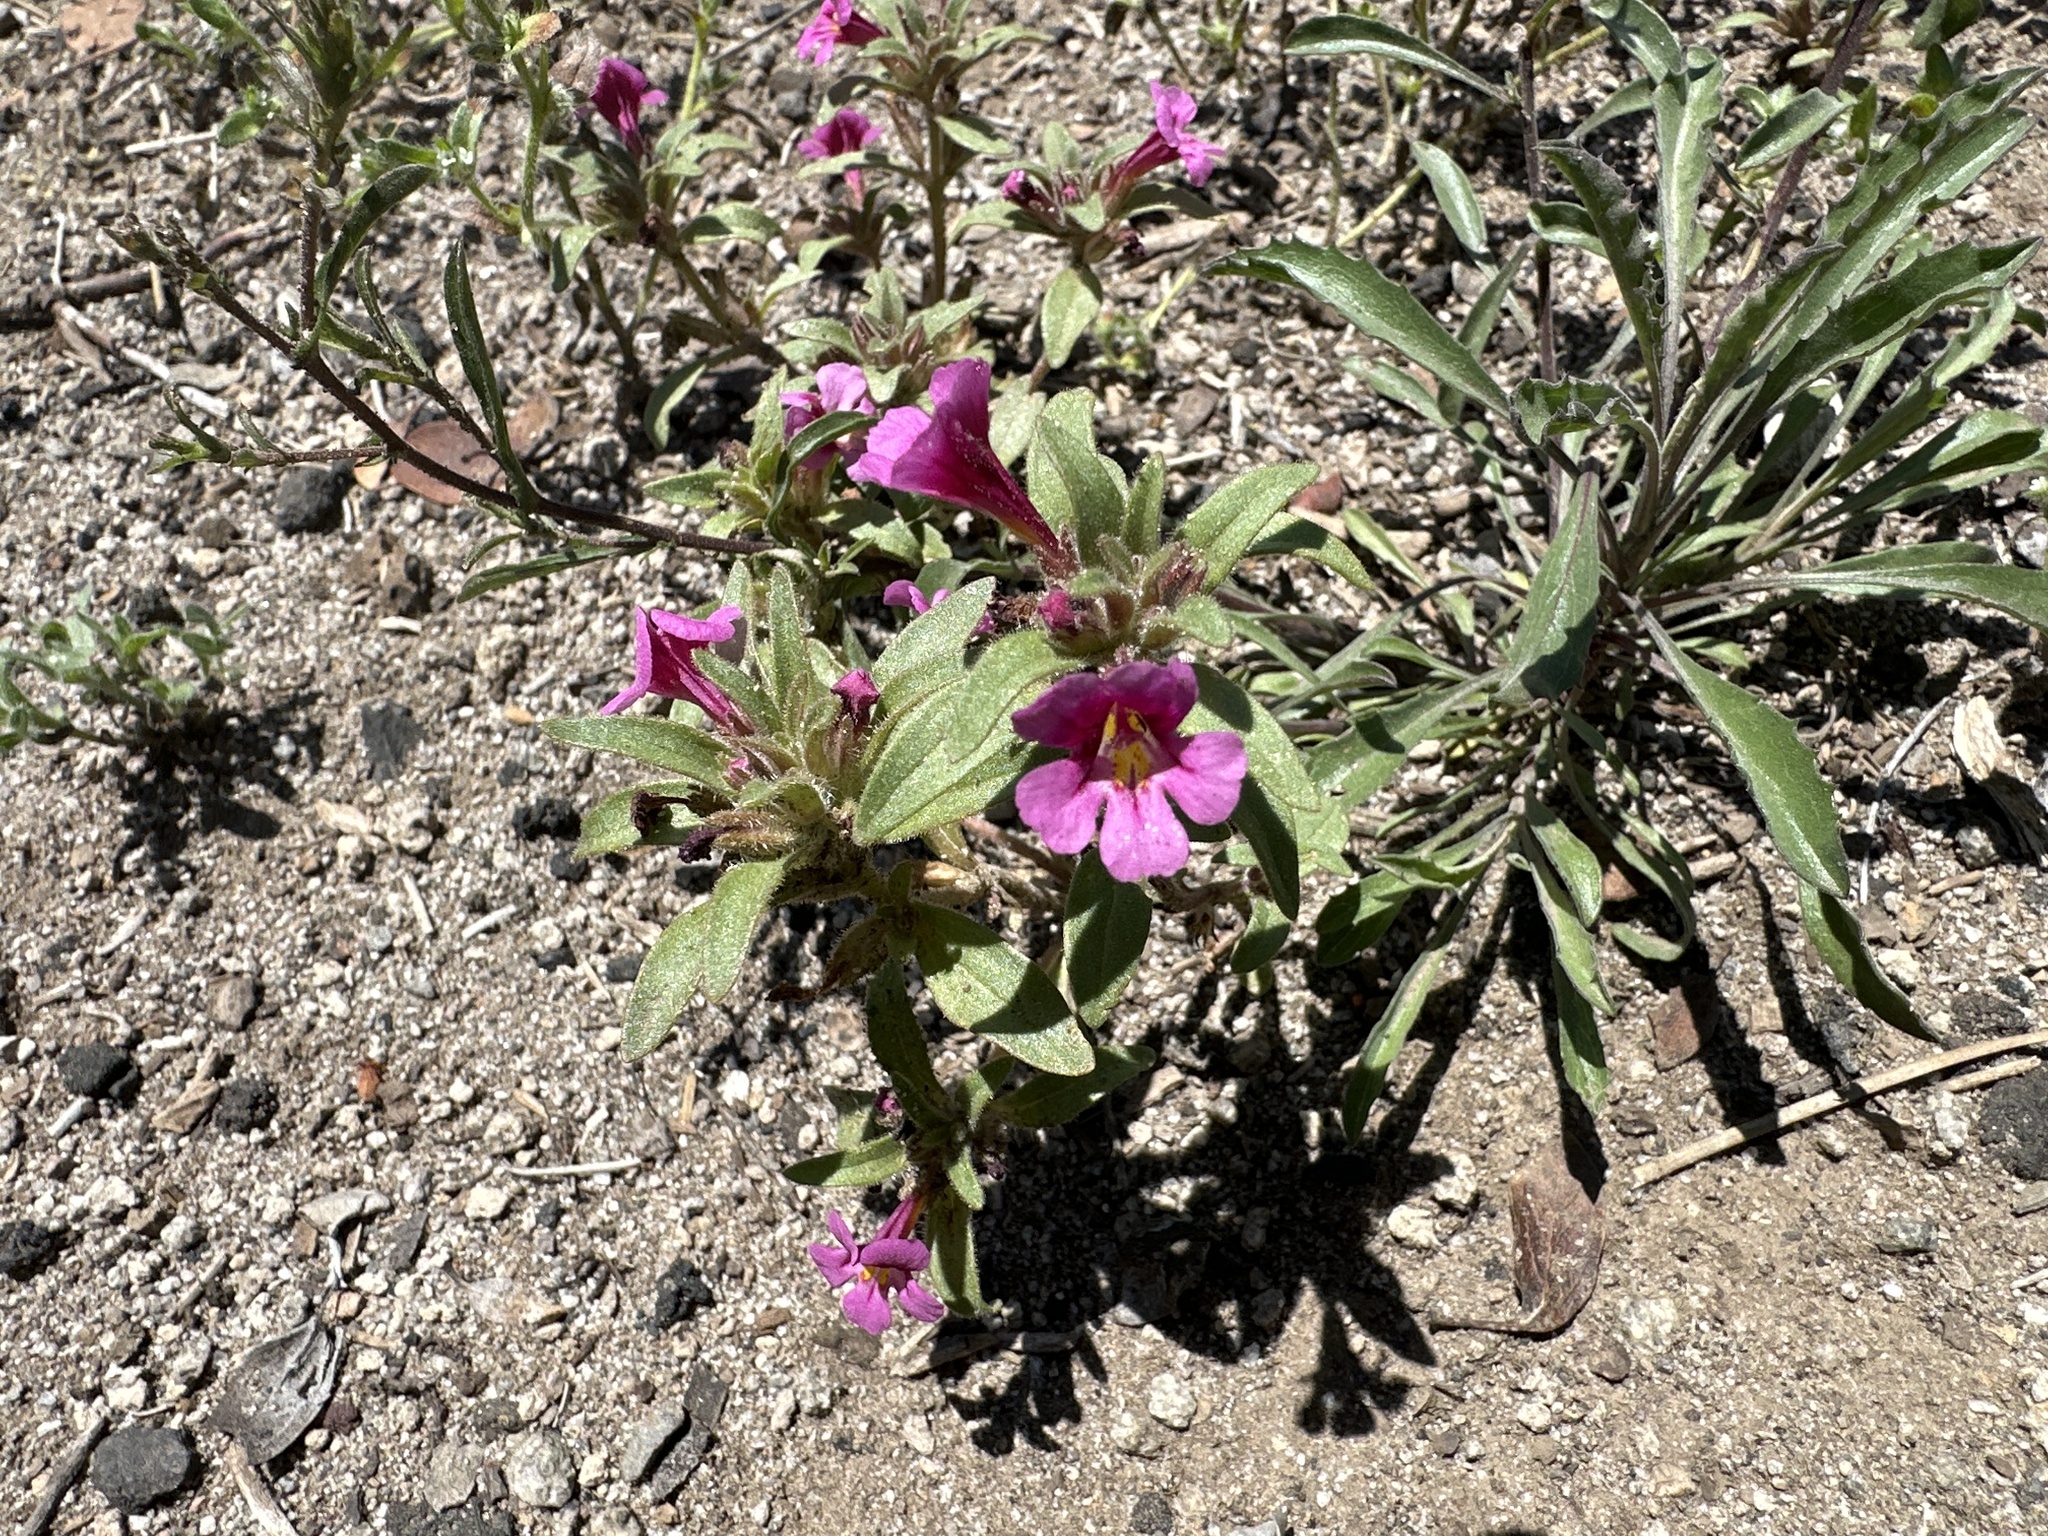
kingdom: Plantae
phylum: Tracheophyta
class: Magnoliopsida
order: Lamiales
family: Phrymaceae
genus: Diplacus
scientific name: Diplacus layneae
